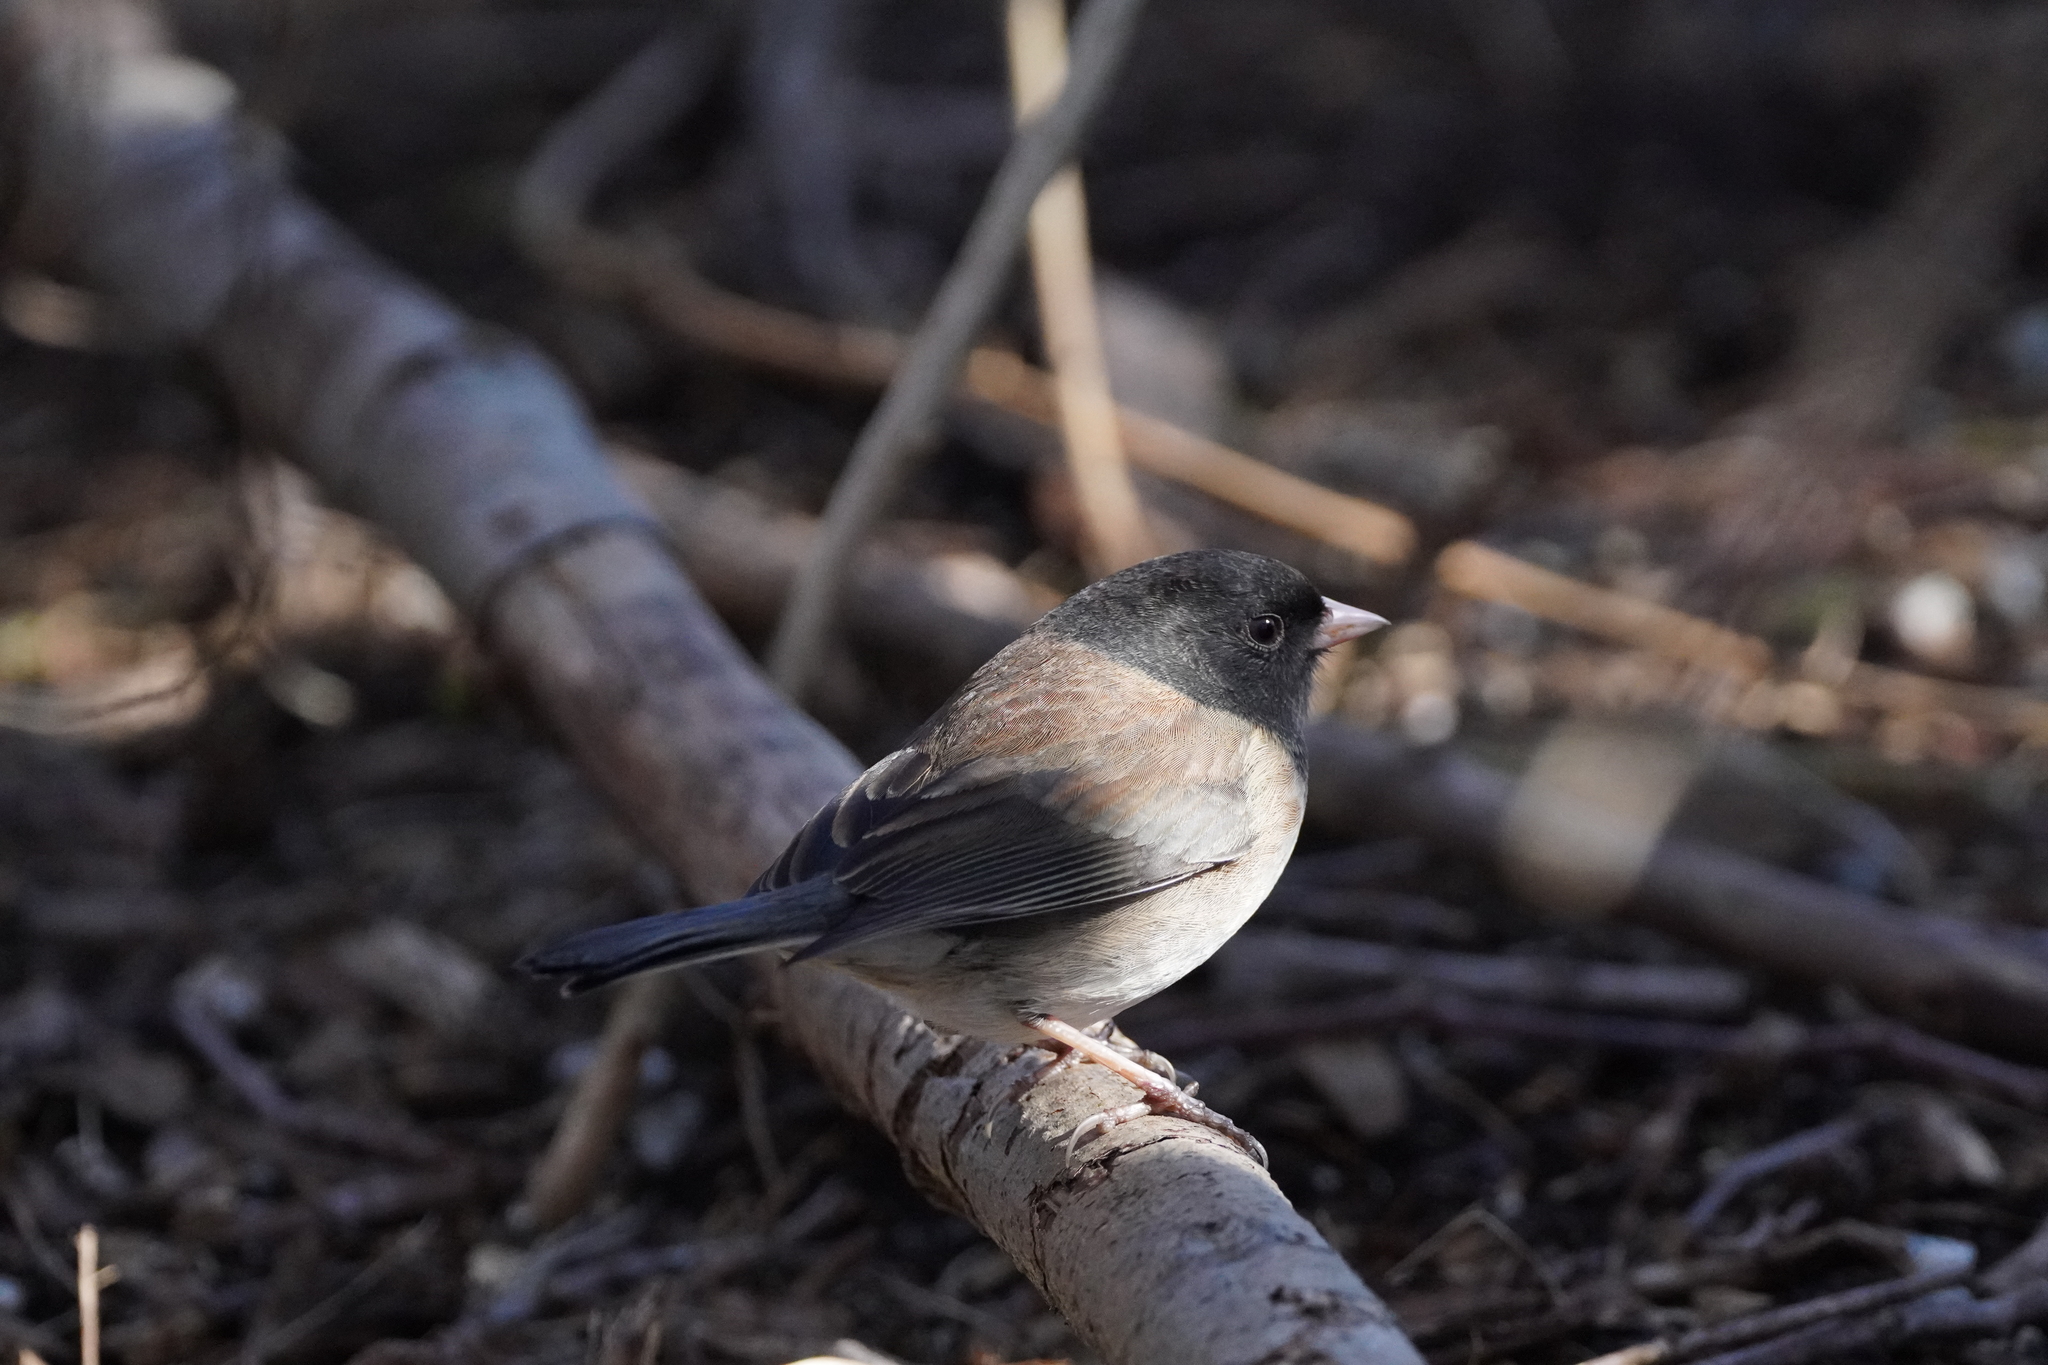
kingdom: Animalia
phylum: Chordata
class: Aves
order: Passeriformes
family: Passerellidae
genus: Junco
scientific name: Junco hyemalis
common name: Dark-eyed junco
